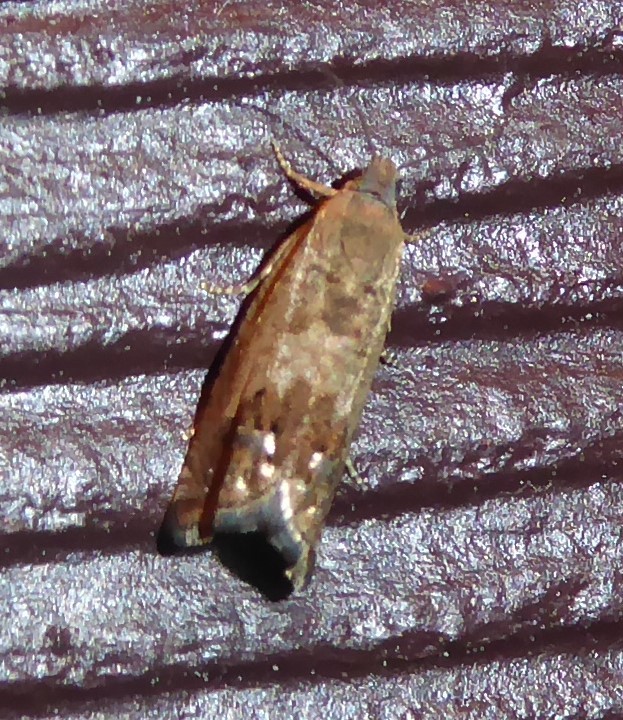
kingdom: Animalia
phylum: Arthropoda
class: Insecta
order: Lepidoptera
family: Tortricidae
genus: Cydia
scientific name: Cydia succedana
